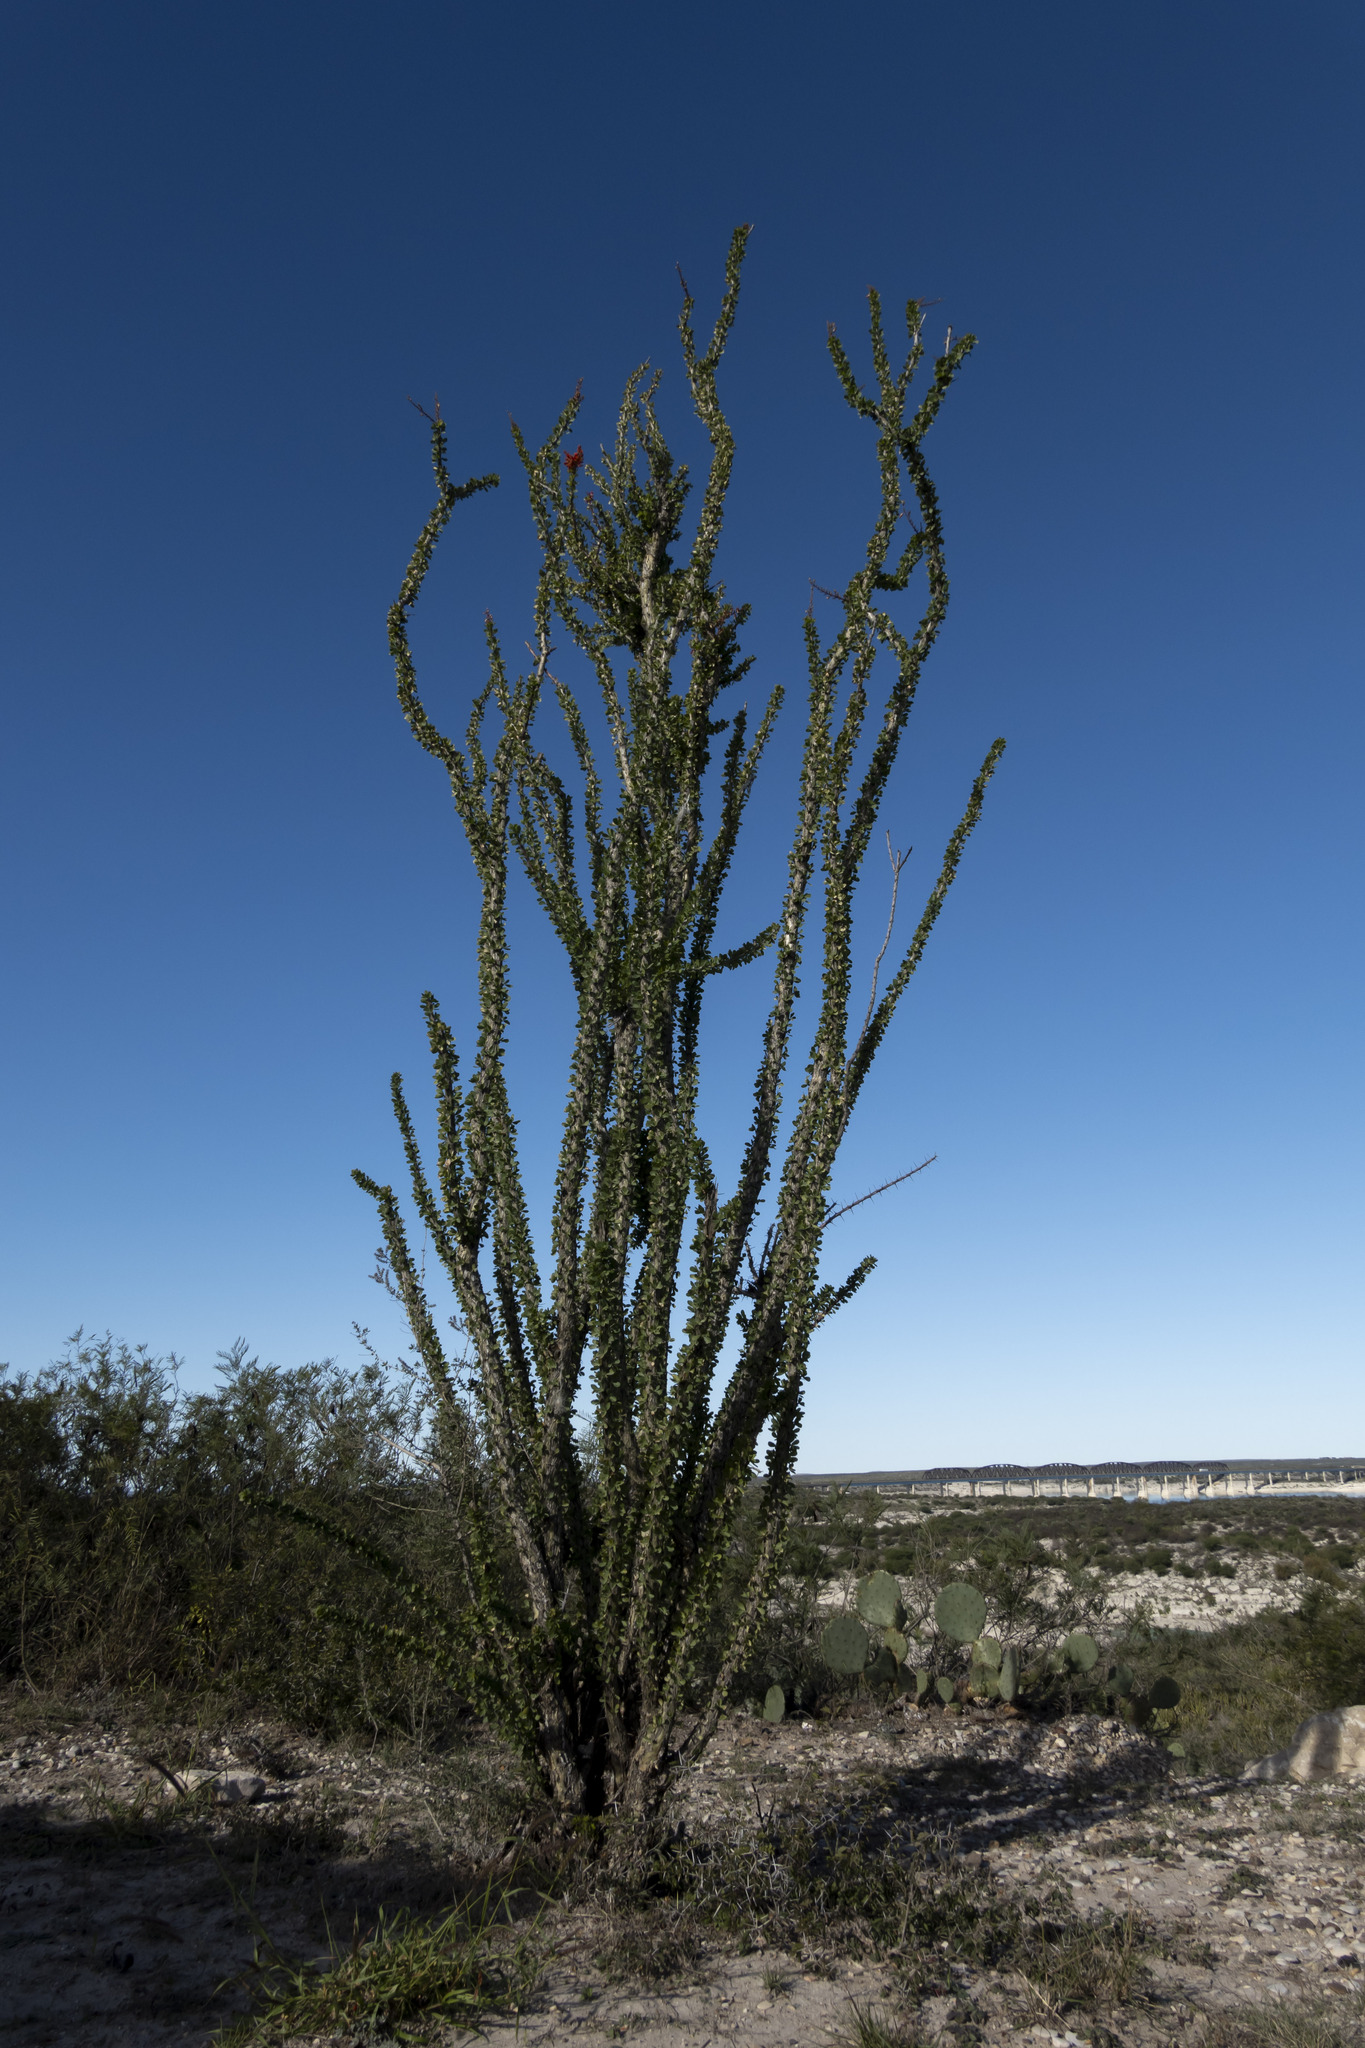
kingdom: Plantae
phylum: Tracheophyta
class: Magnoliopsida
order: Ericales
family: Fouquieriaceae
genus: Fouquieria
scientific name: Fouquieria splendens
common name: Vine-cactus
